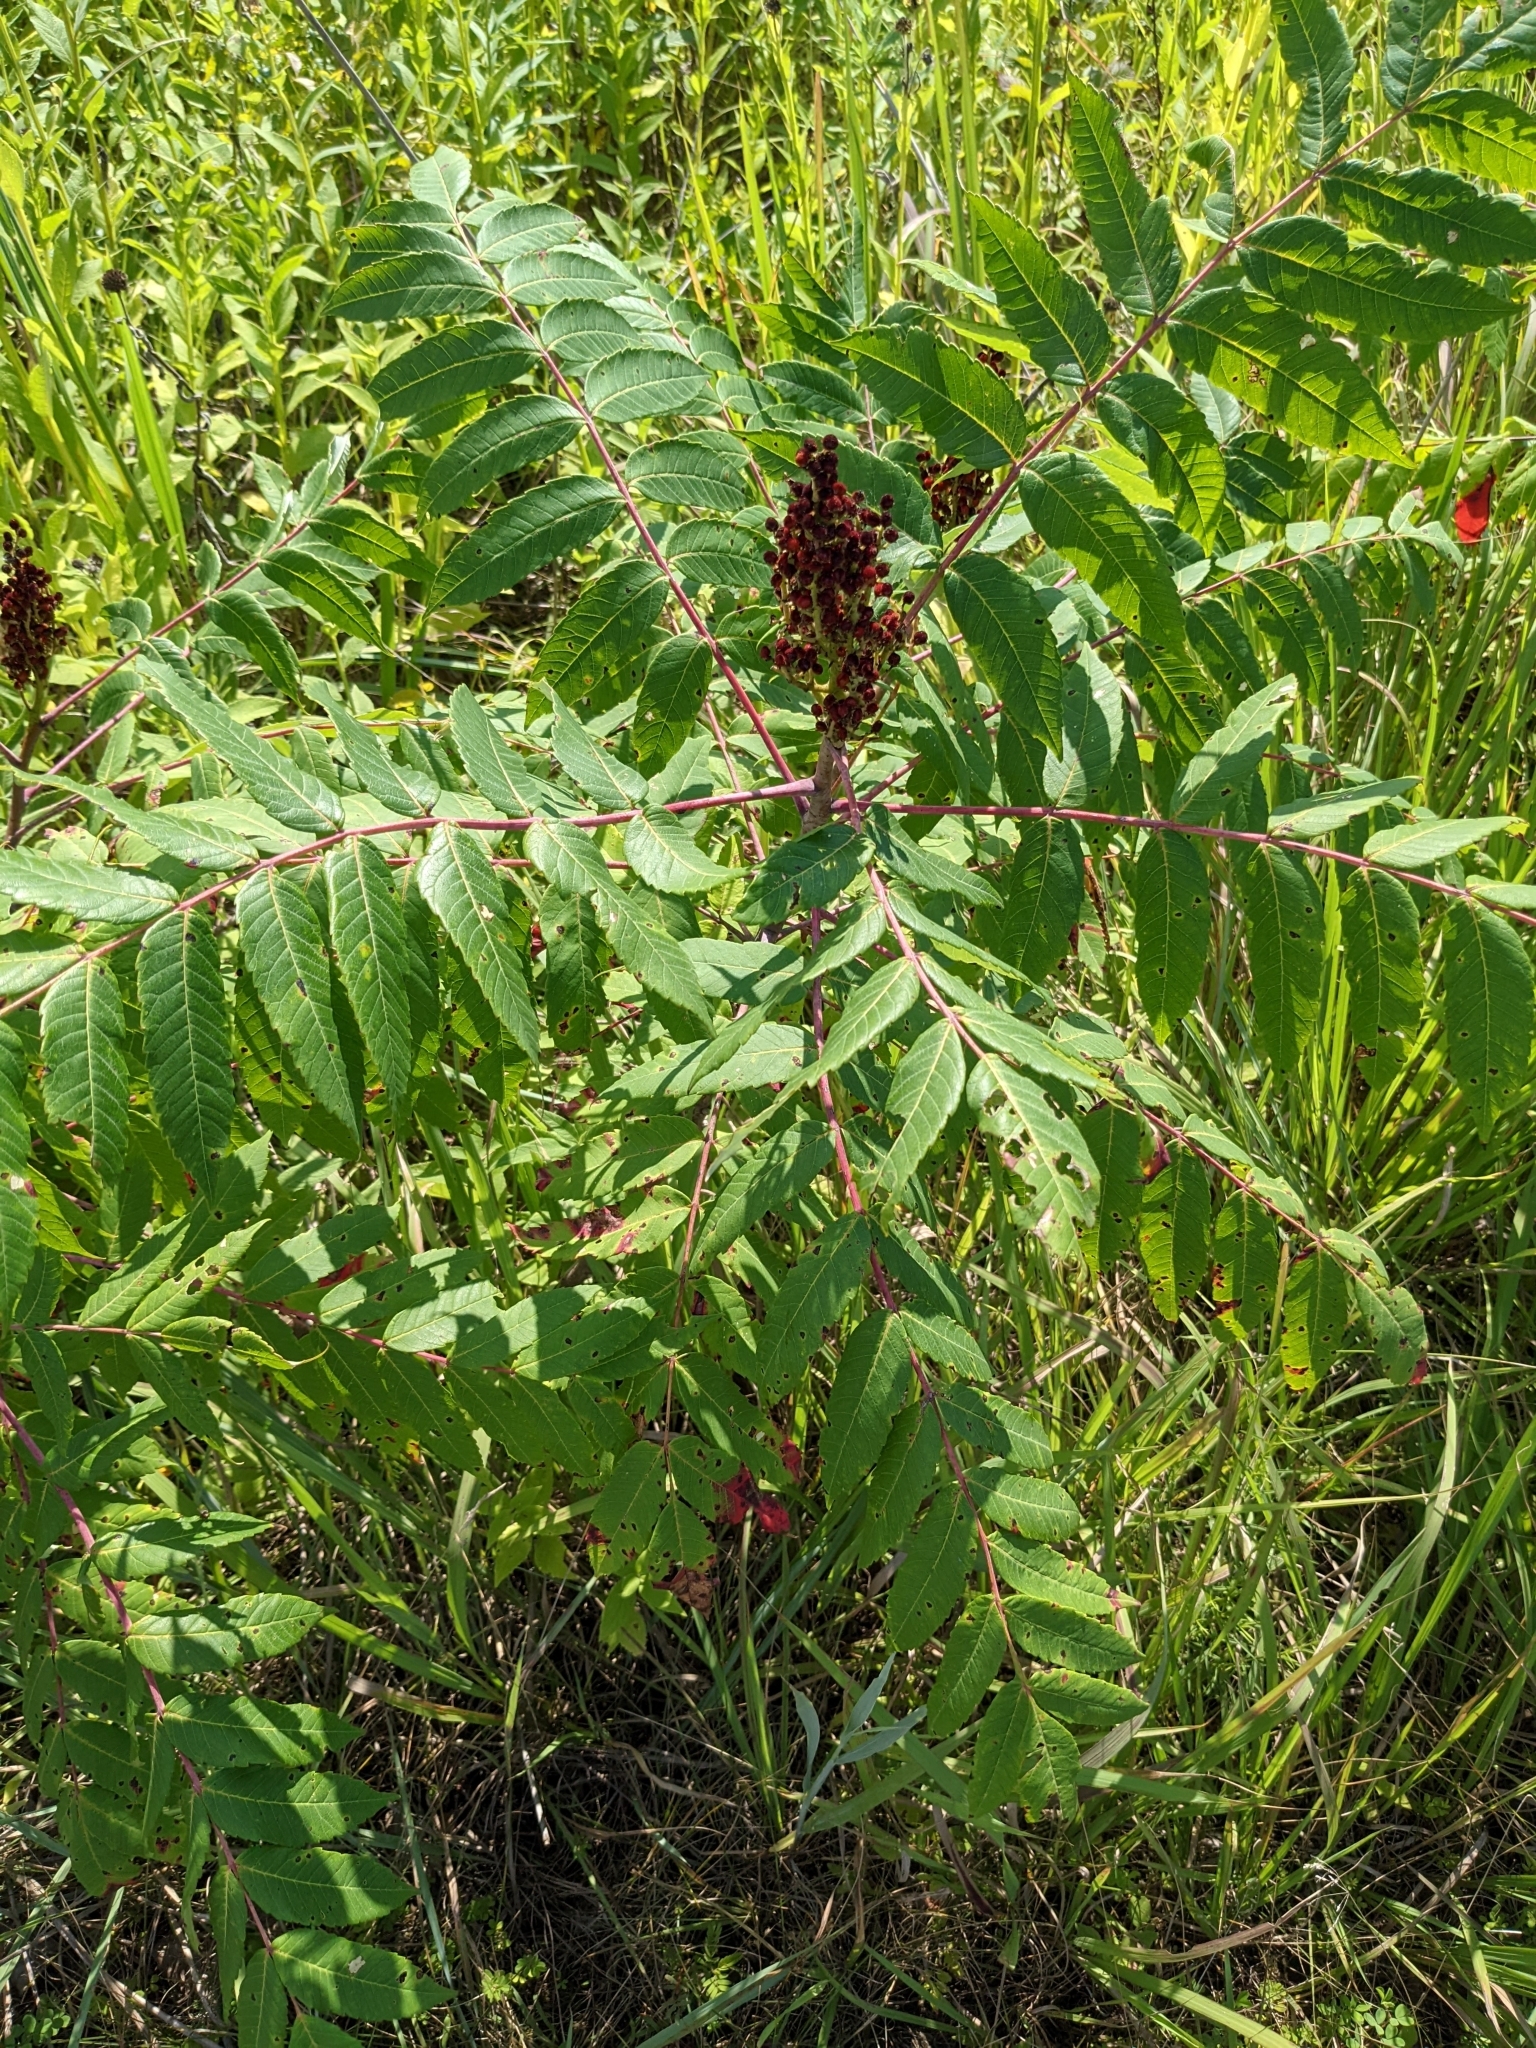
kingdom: Plantae
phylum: Tracheophyta
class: Magnoliopsida
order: Sapindales
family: Anacardiaceae
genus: Rhus
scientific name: Rhus glabra
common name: Scarlet sumac
